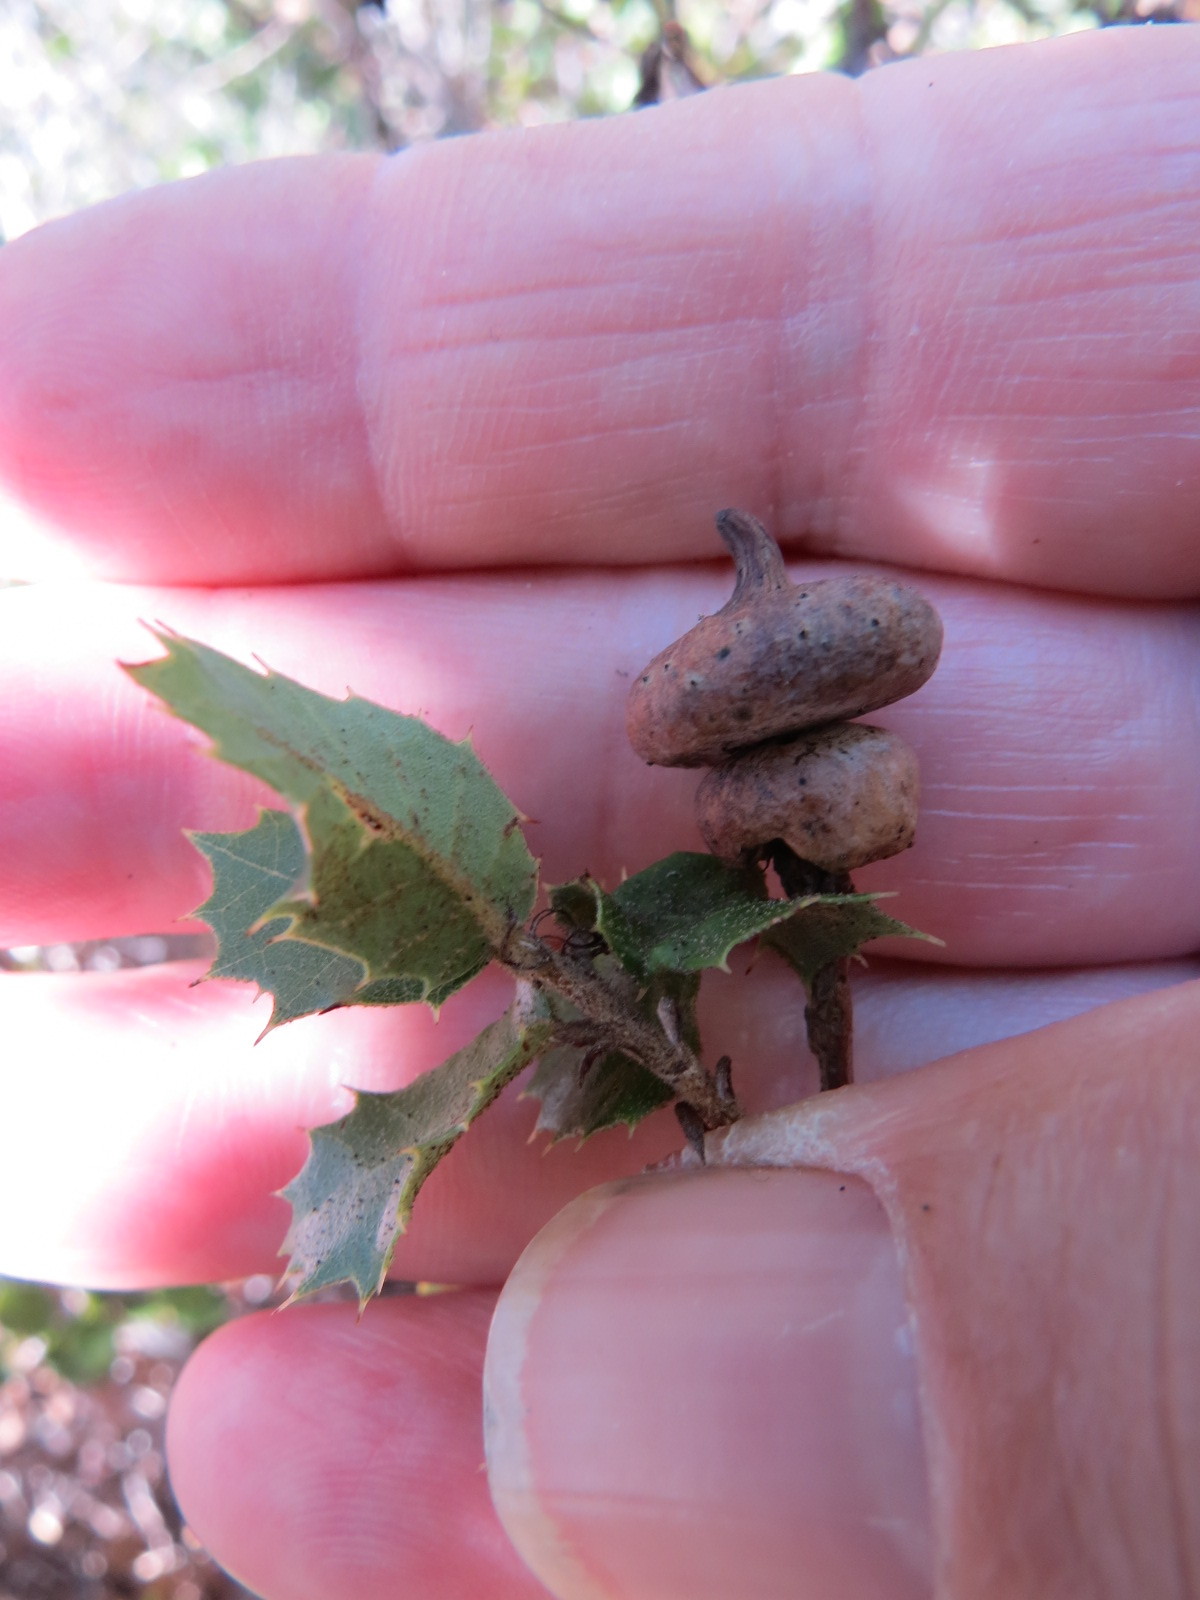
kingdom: Animalia
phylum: Arthropoda
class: Insecta
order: Hymenoptera
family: Cynipidae
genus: Heteroecus
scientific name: Heteroecus
